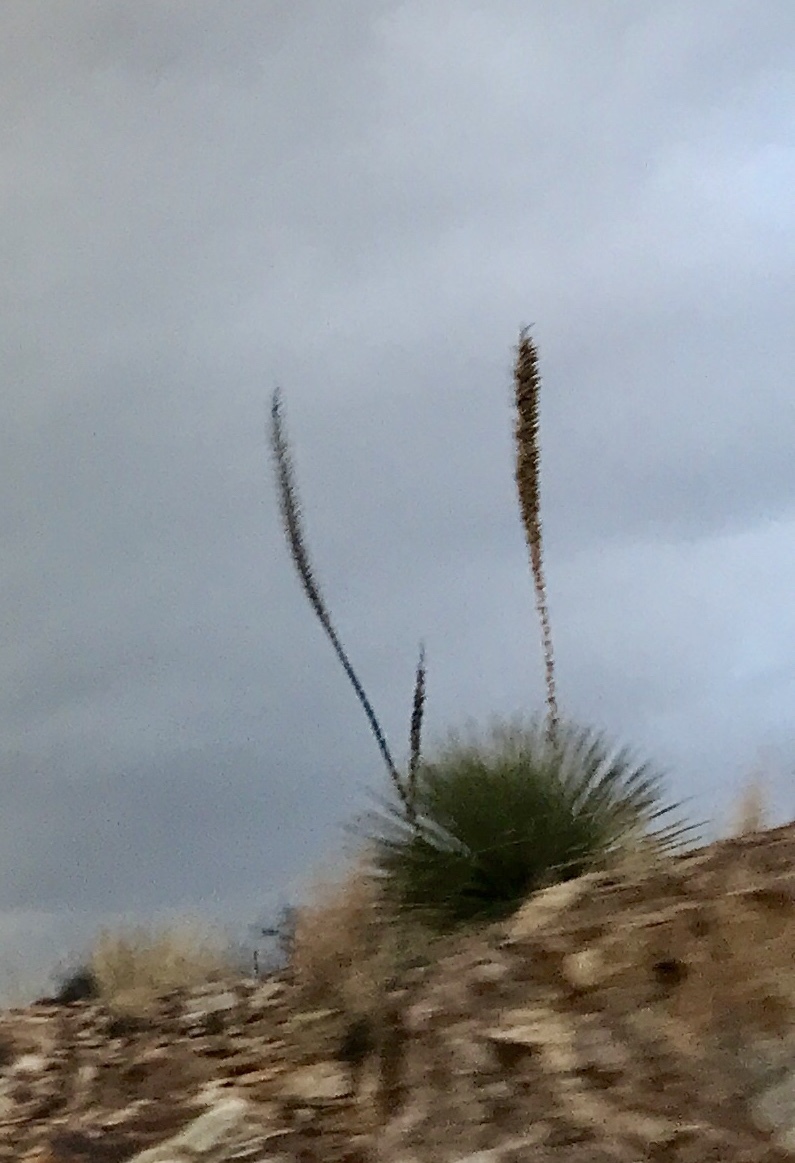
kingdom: Plantae
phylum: Tracheophyta
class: Liliopsida
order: Asparagales
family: Asparagaceae
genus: Dasylirion
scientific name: Dasylirion wheeleri
